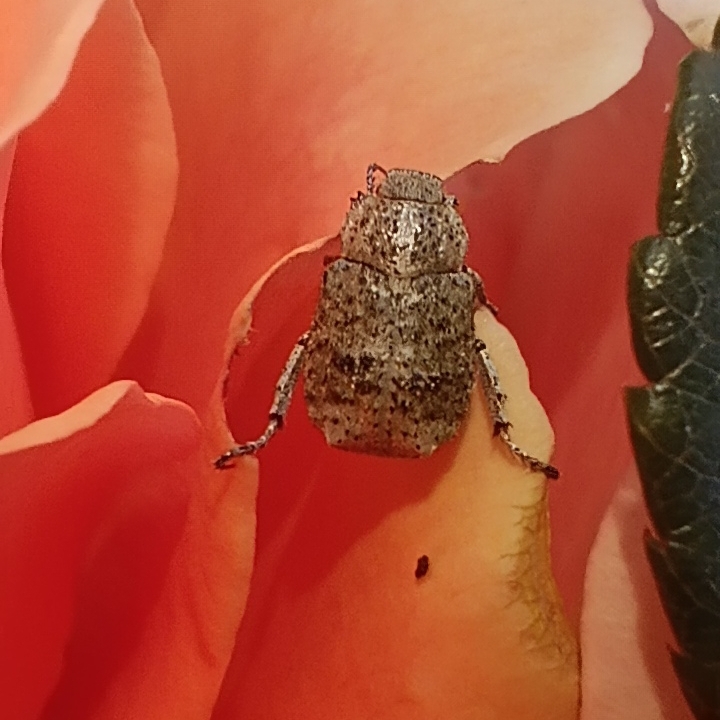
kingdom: Animalia
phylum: Arthropoda
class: Insecta
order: Coleoptera
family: Scarabaeidae
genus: Hoplia
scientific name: Hoplia sordida
